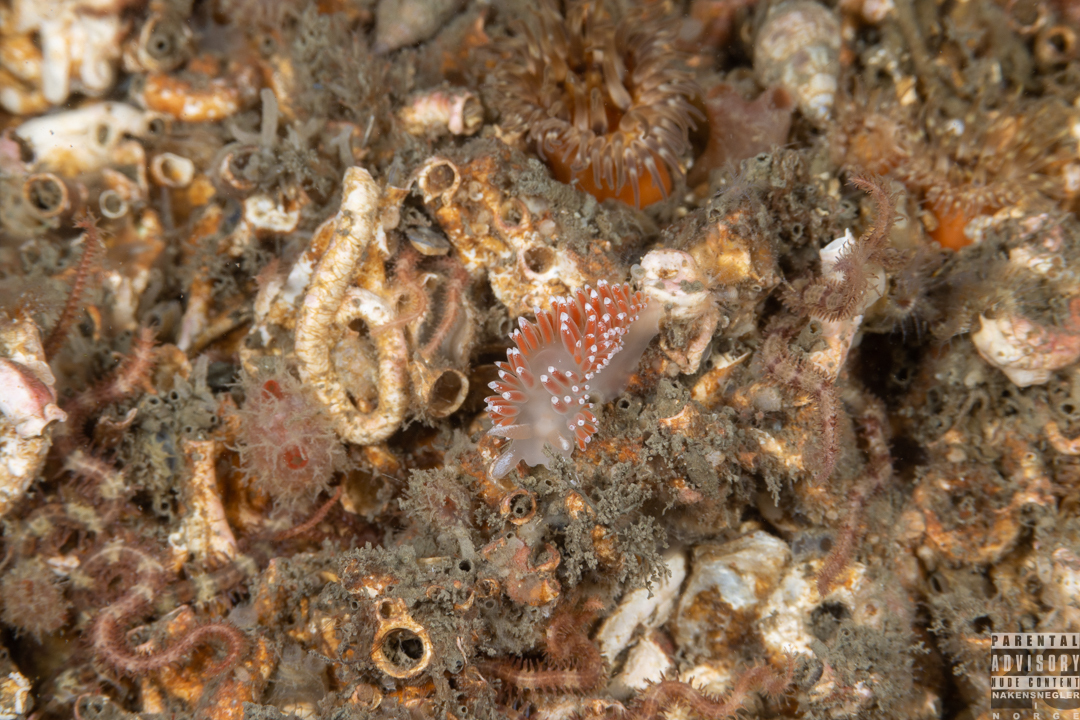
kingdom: Animalia
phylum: Mollusca
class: Gastropoda
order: Nudibranchia
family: Coryphellidae
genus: Coryphella
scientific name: Coryphella verrucosa
